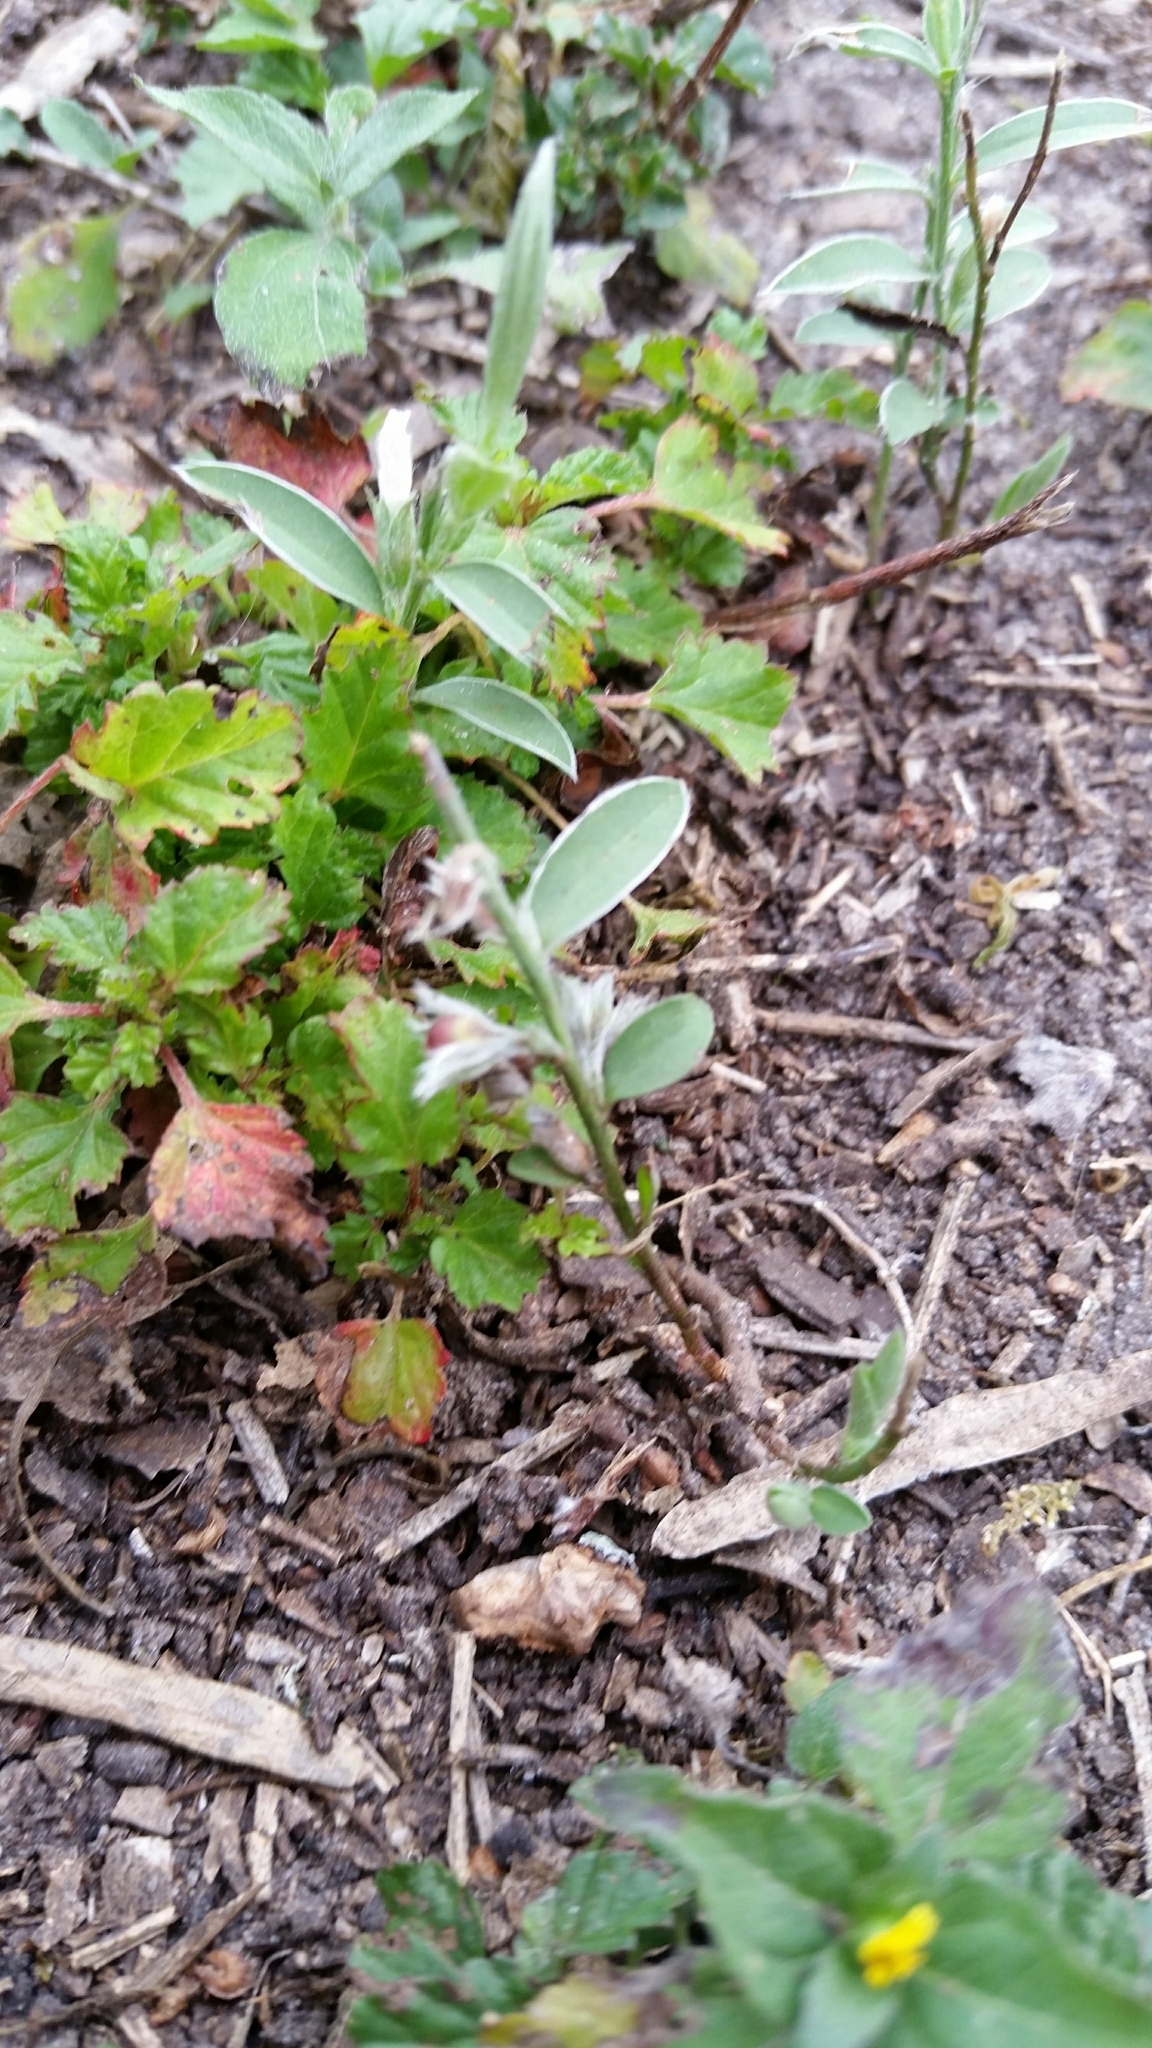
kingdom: Plantae
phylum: Tracheophyta
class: Magnoliopsida
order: Solanales
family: Convolvulaceae
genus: Evolvulus
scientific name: Evolvulus sericeus
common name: Blue dots
